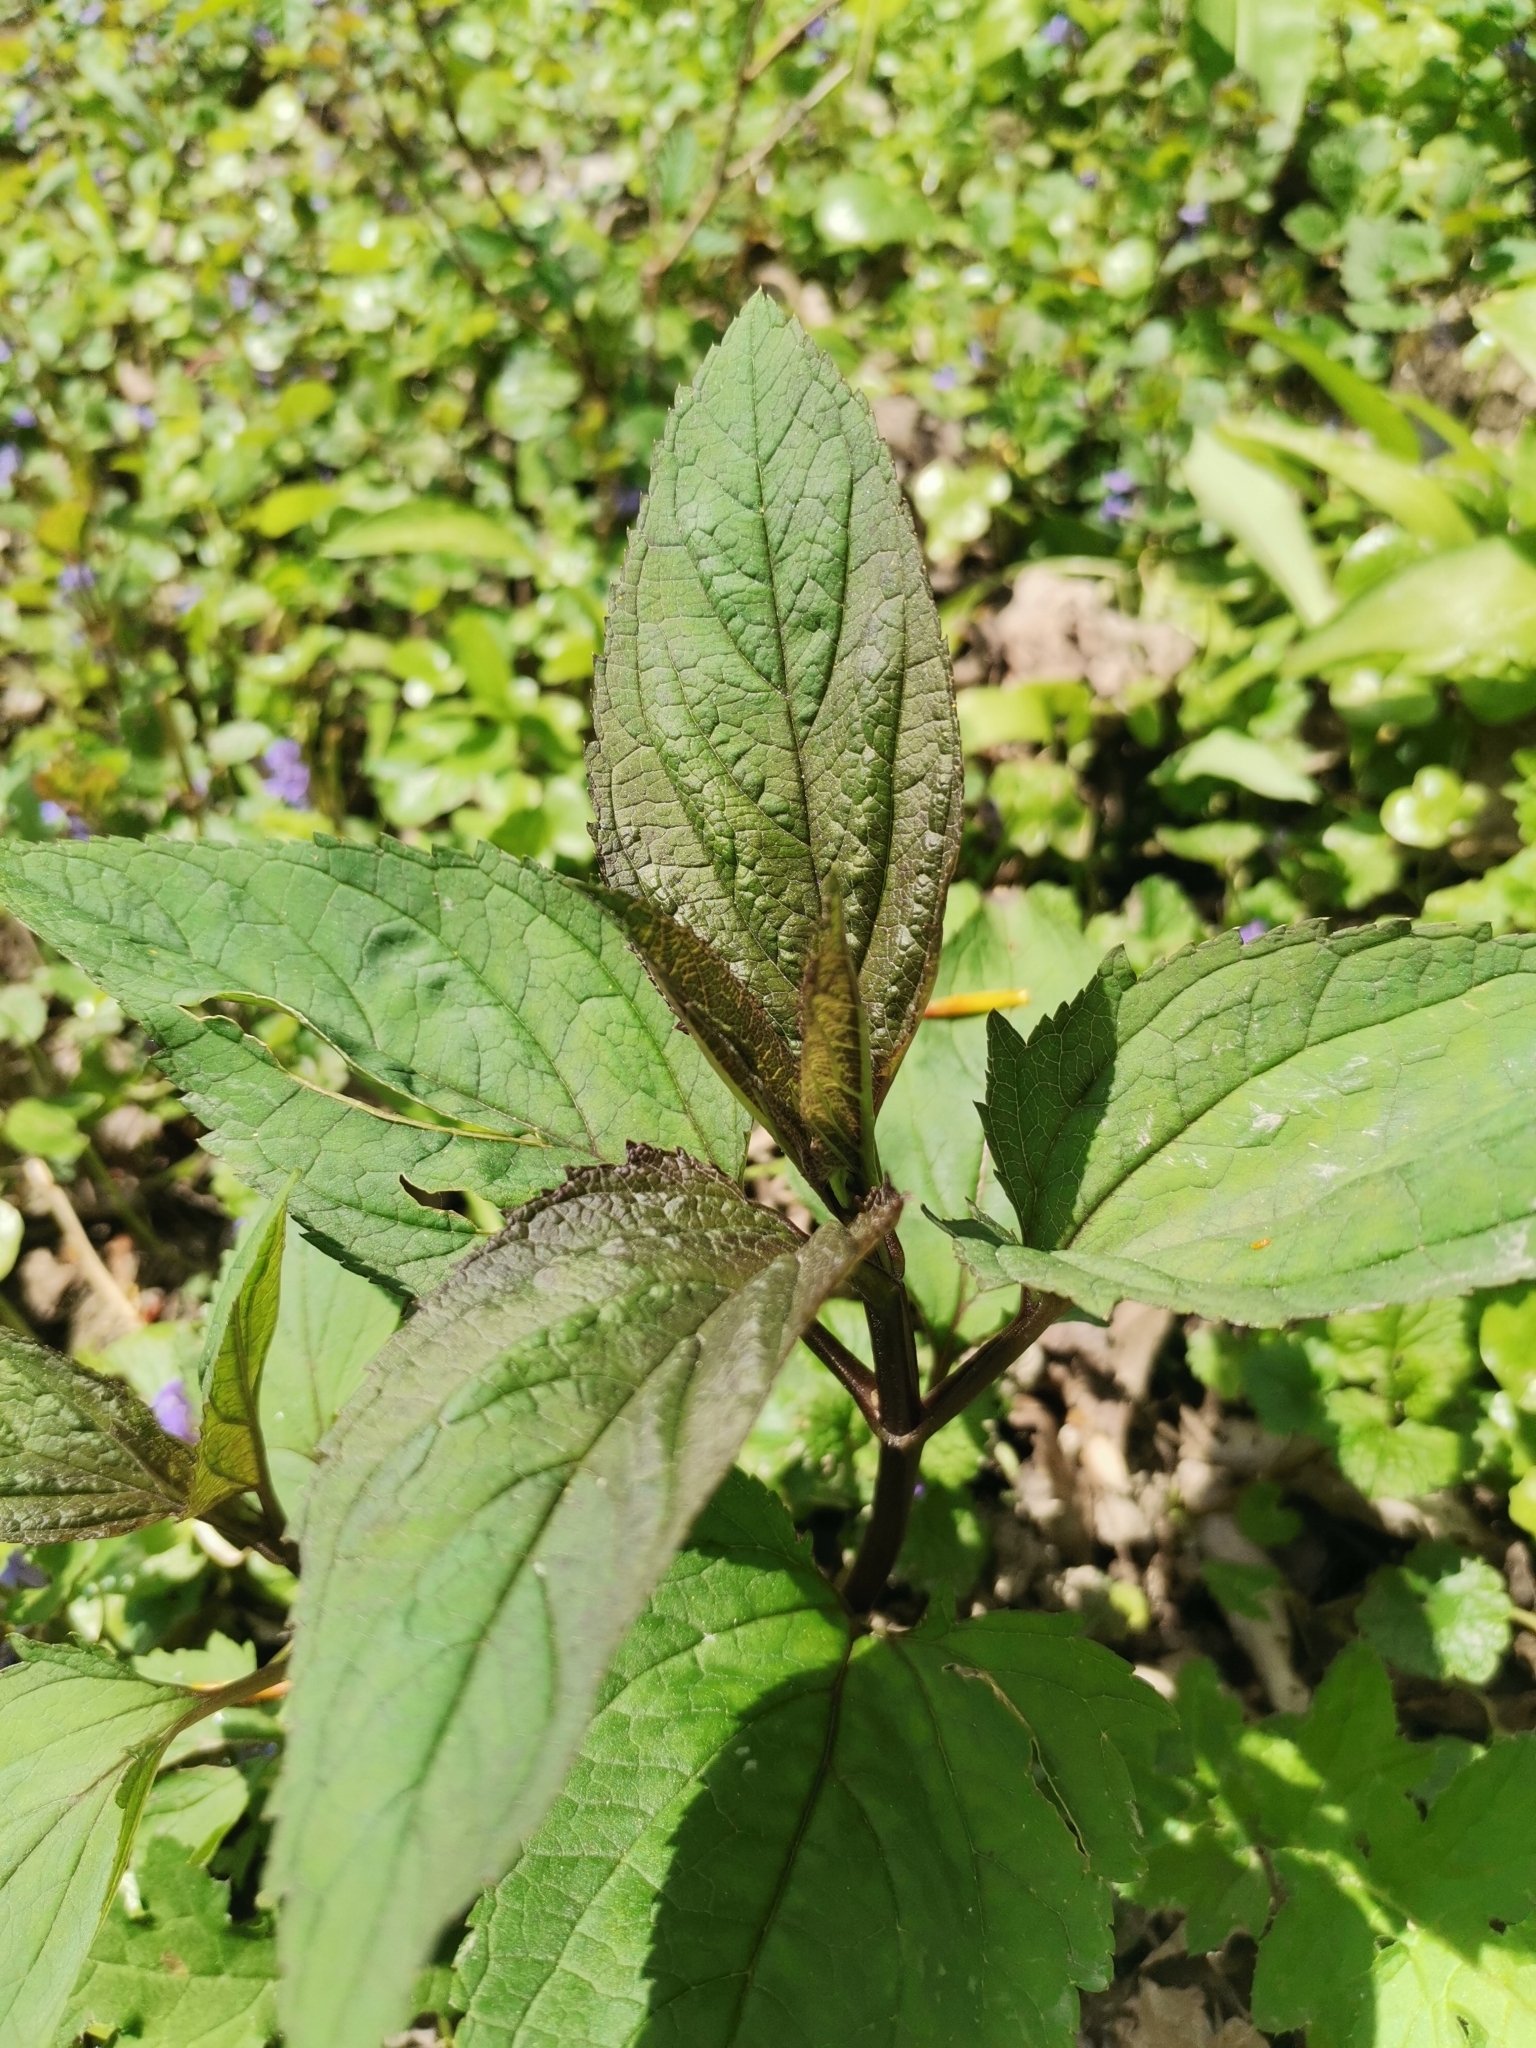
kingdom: Plantae
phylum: Tracheophyta
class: Magnoliopsida
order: Lamiales
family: Scrophulariaceae
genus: Scrophularia
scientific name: Scrophularia nodosa
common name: Common figwort
